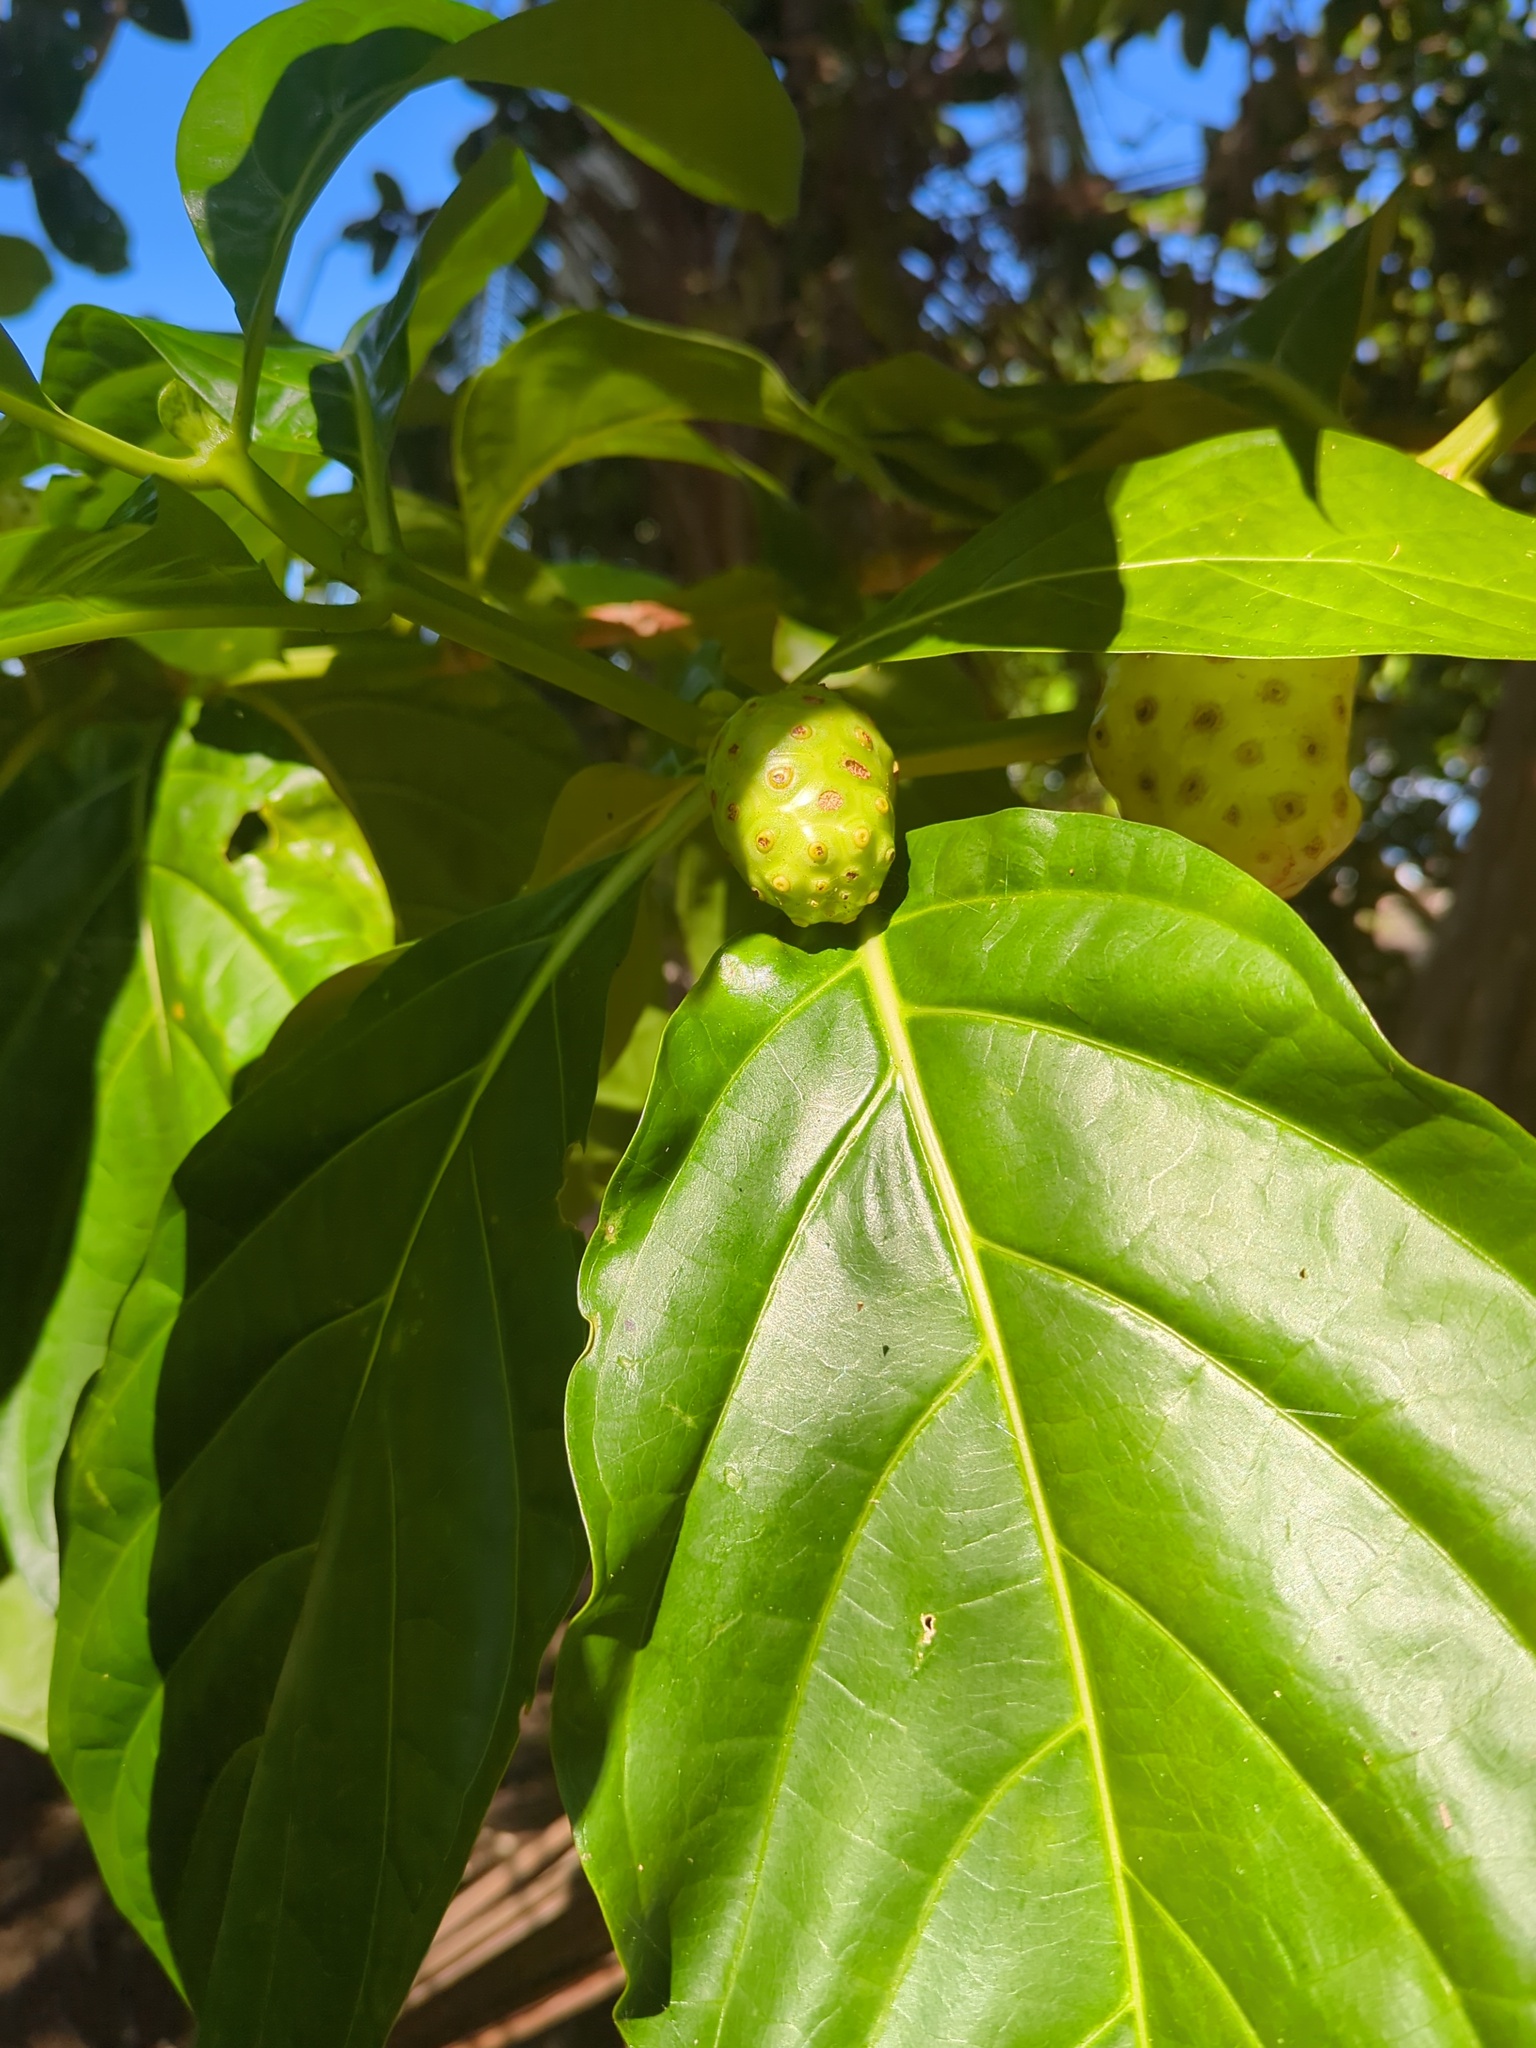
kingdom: Plantae
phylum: Tracheophyta
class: Magnoliopsida
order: Gentianales
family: Rubiaceae
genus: Morinda
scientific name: Morinda citrifolia
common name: Indian-mulberry
